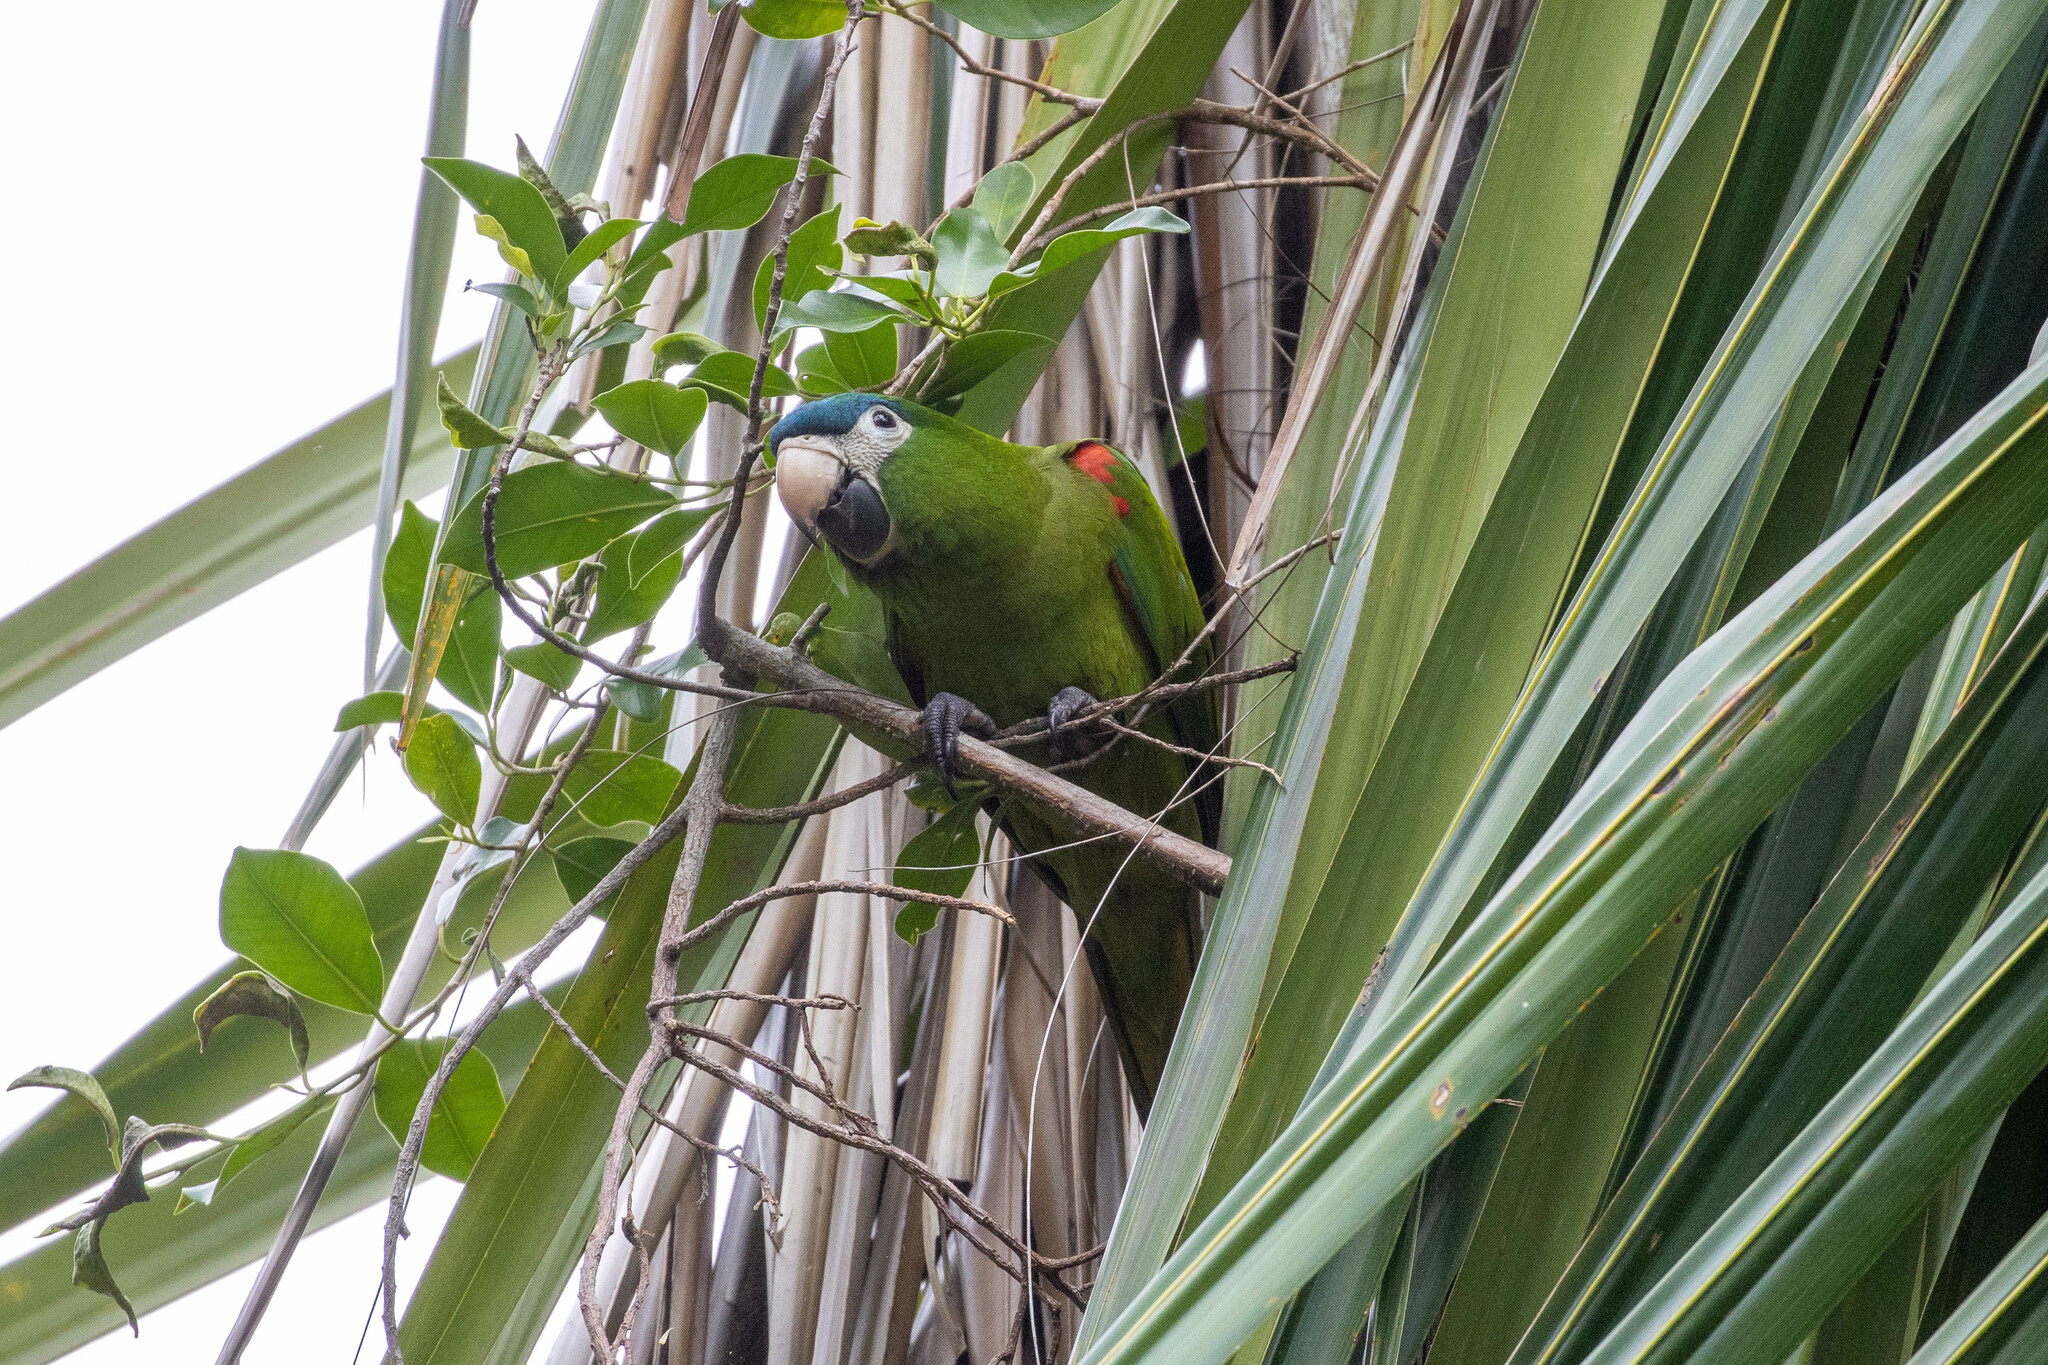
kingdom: Animalia
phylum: Chordata
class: Aves
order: Psittaciformes
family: Psittacidae
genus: Diopsittaca
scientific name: Diopsittaca nobilis
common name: Red-shouldered macaw
